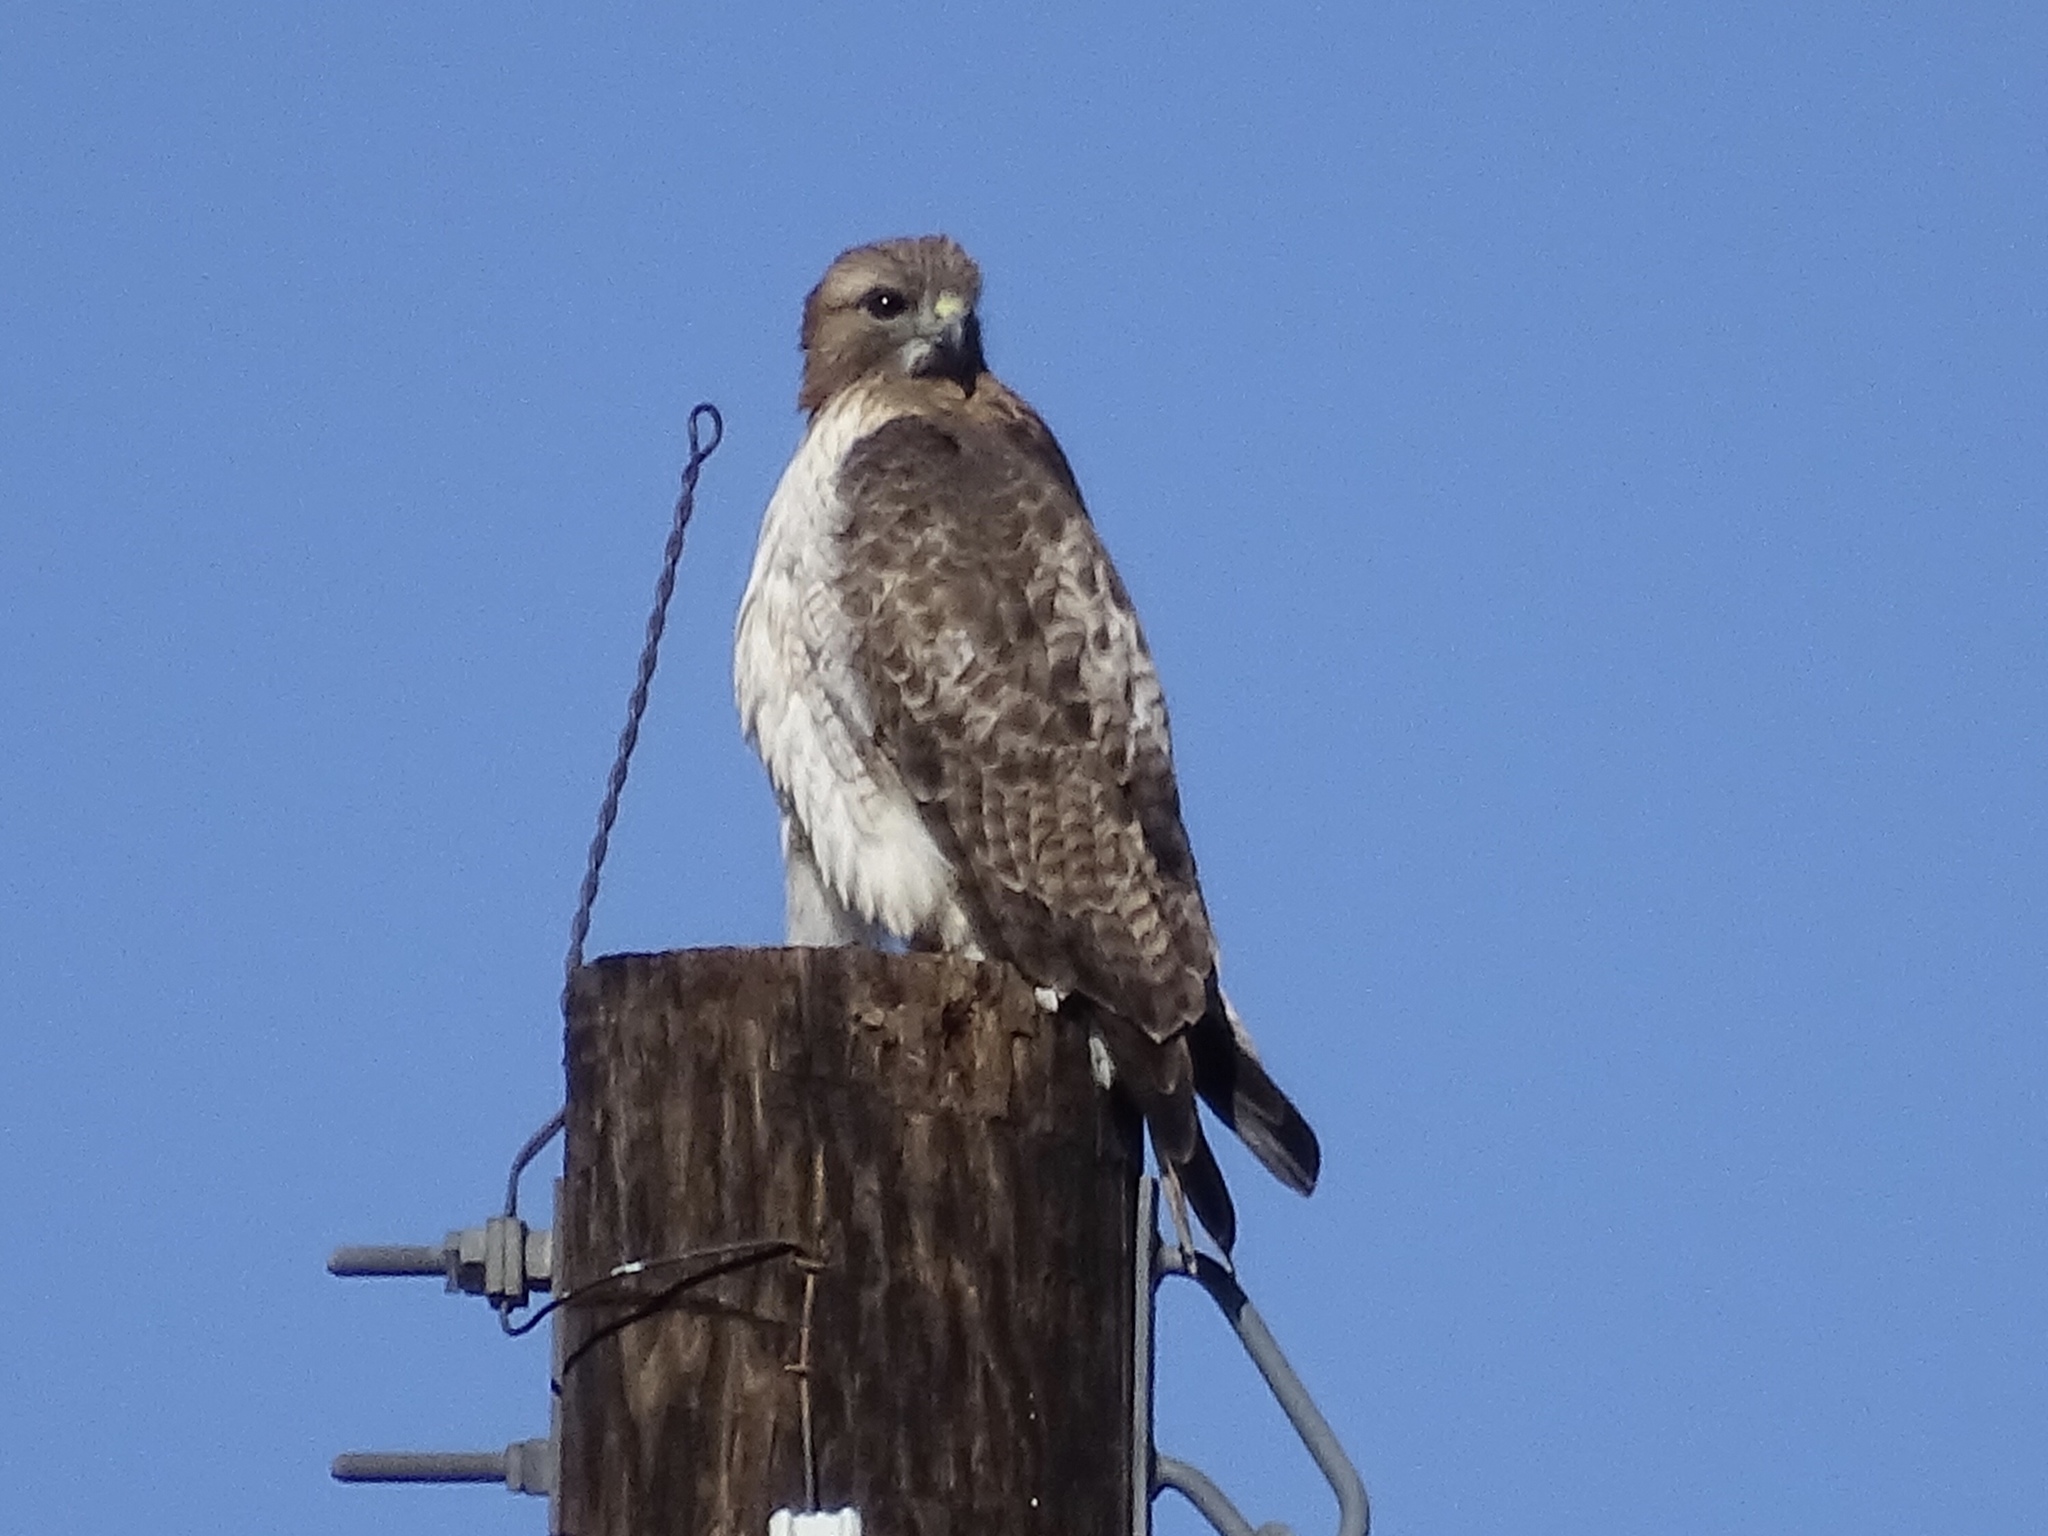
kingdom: Animalia
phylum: Chordata
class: Aves
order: Accipitriformes
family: Accipitridae
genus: Buteo
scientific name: Buteo jamaicensis
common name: Red-tailed hawk
